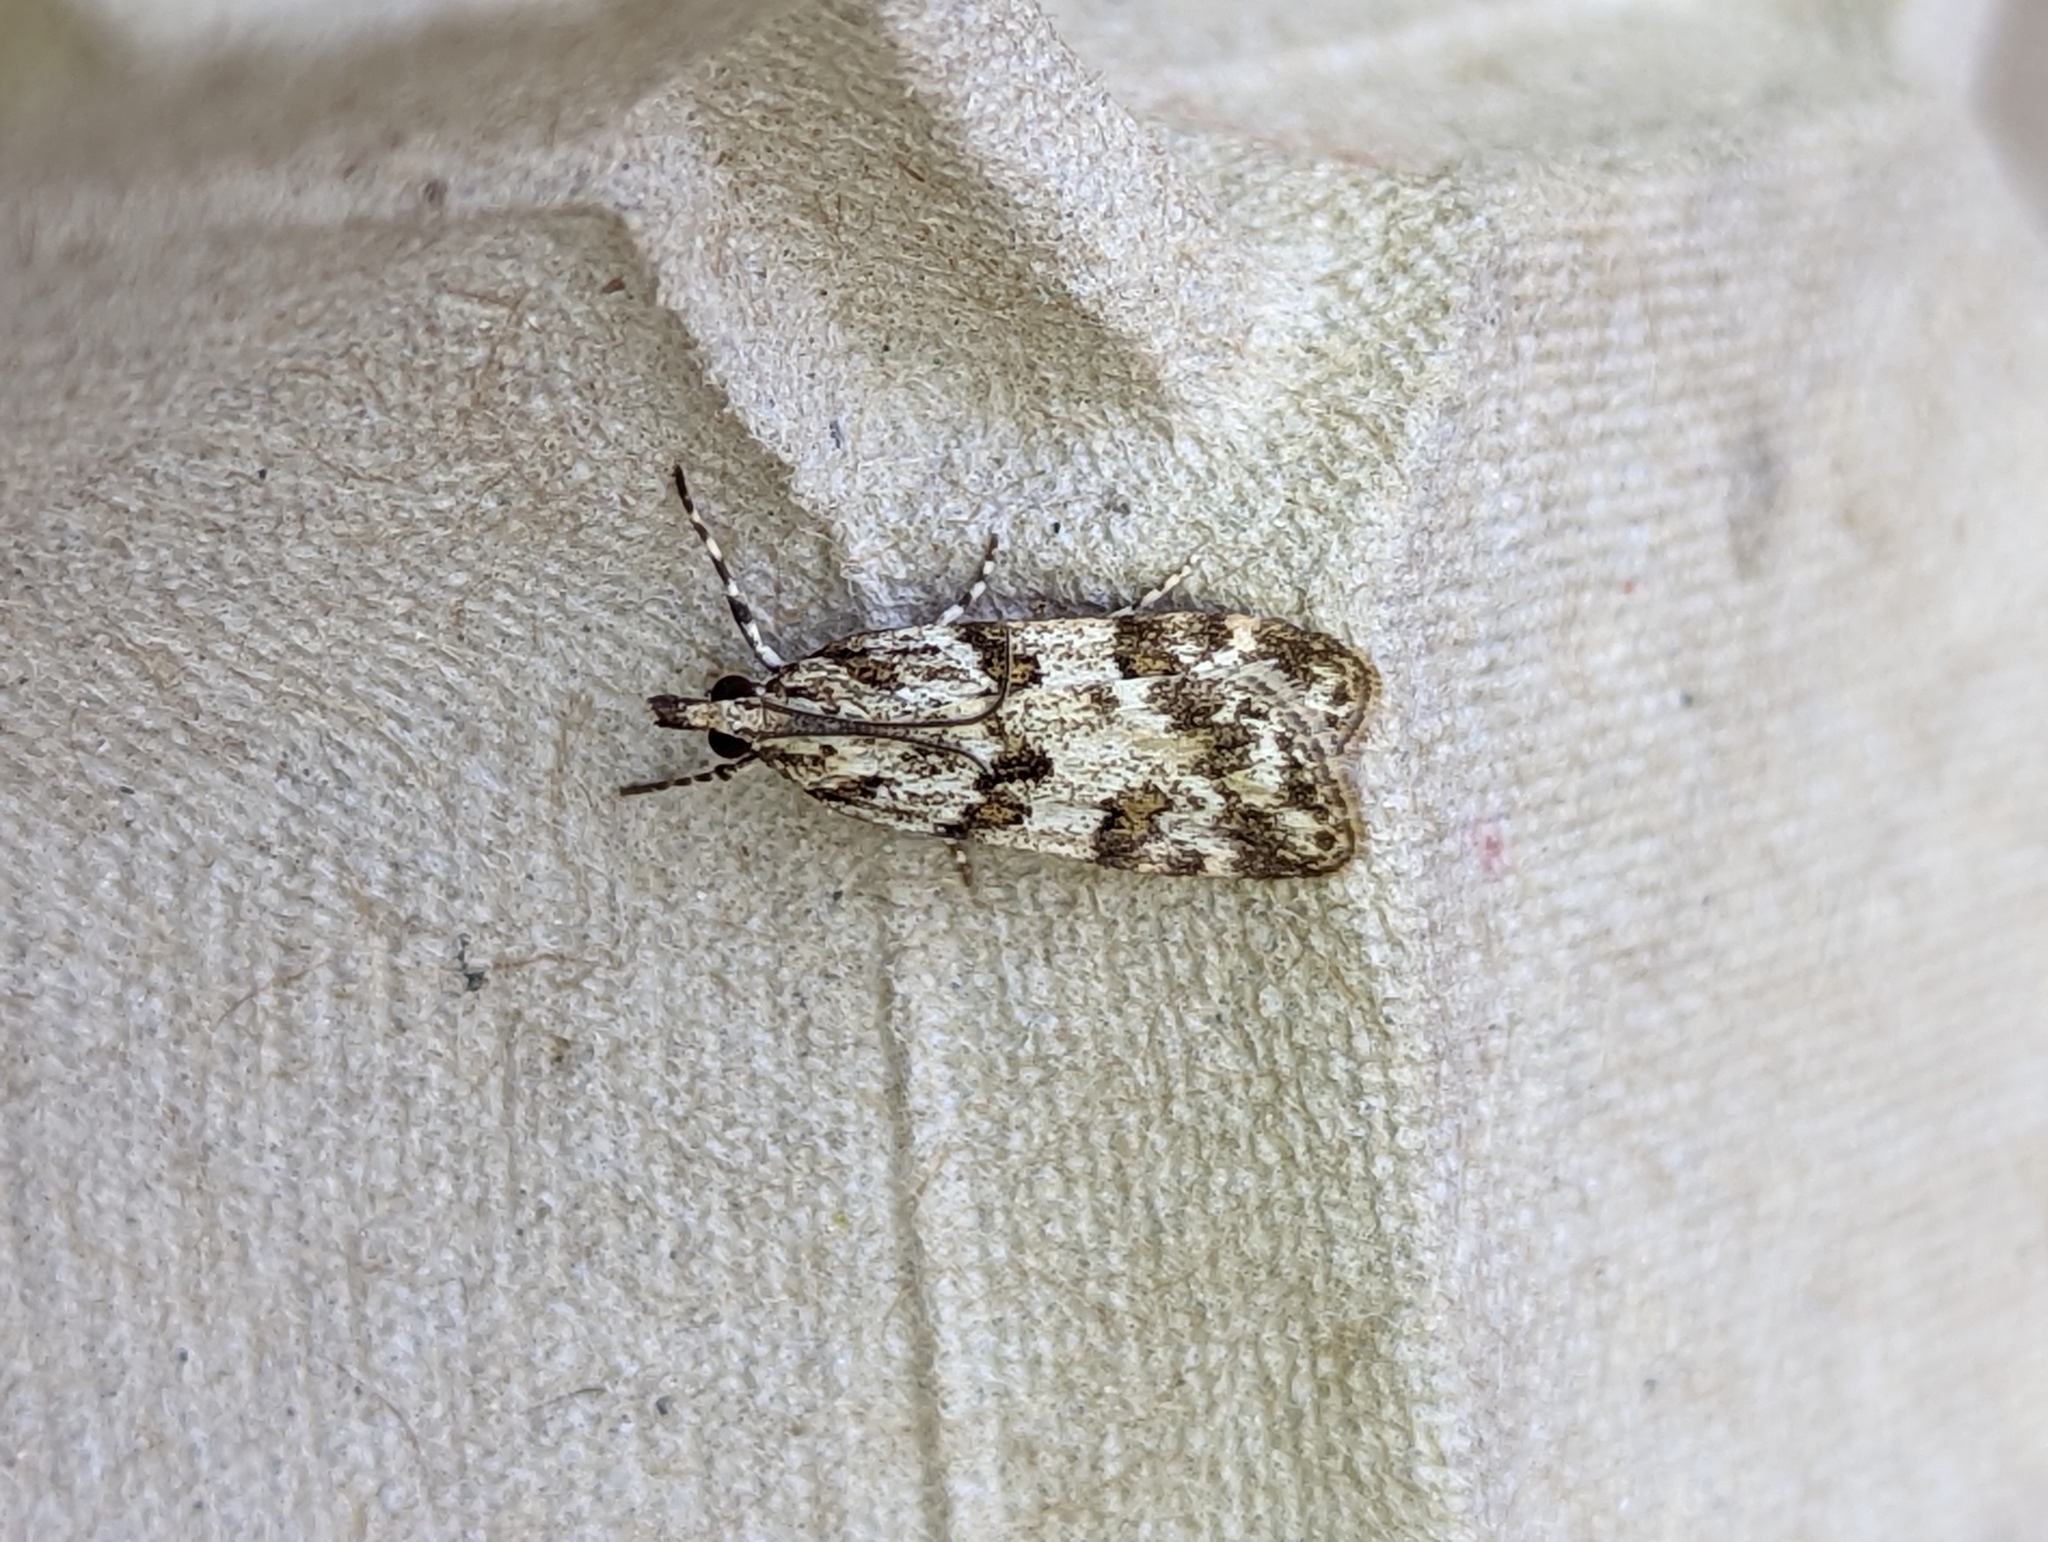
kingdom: Animalia
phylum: Arthropoda
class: Insecta
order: Lepidoptera
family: Crambidae
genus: Scoparia
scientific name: Scoparia pyralella
